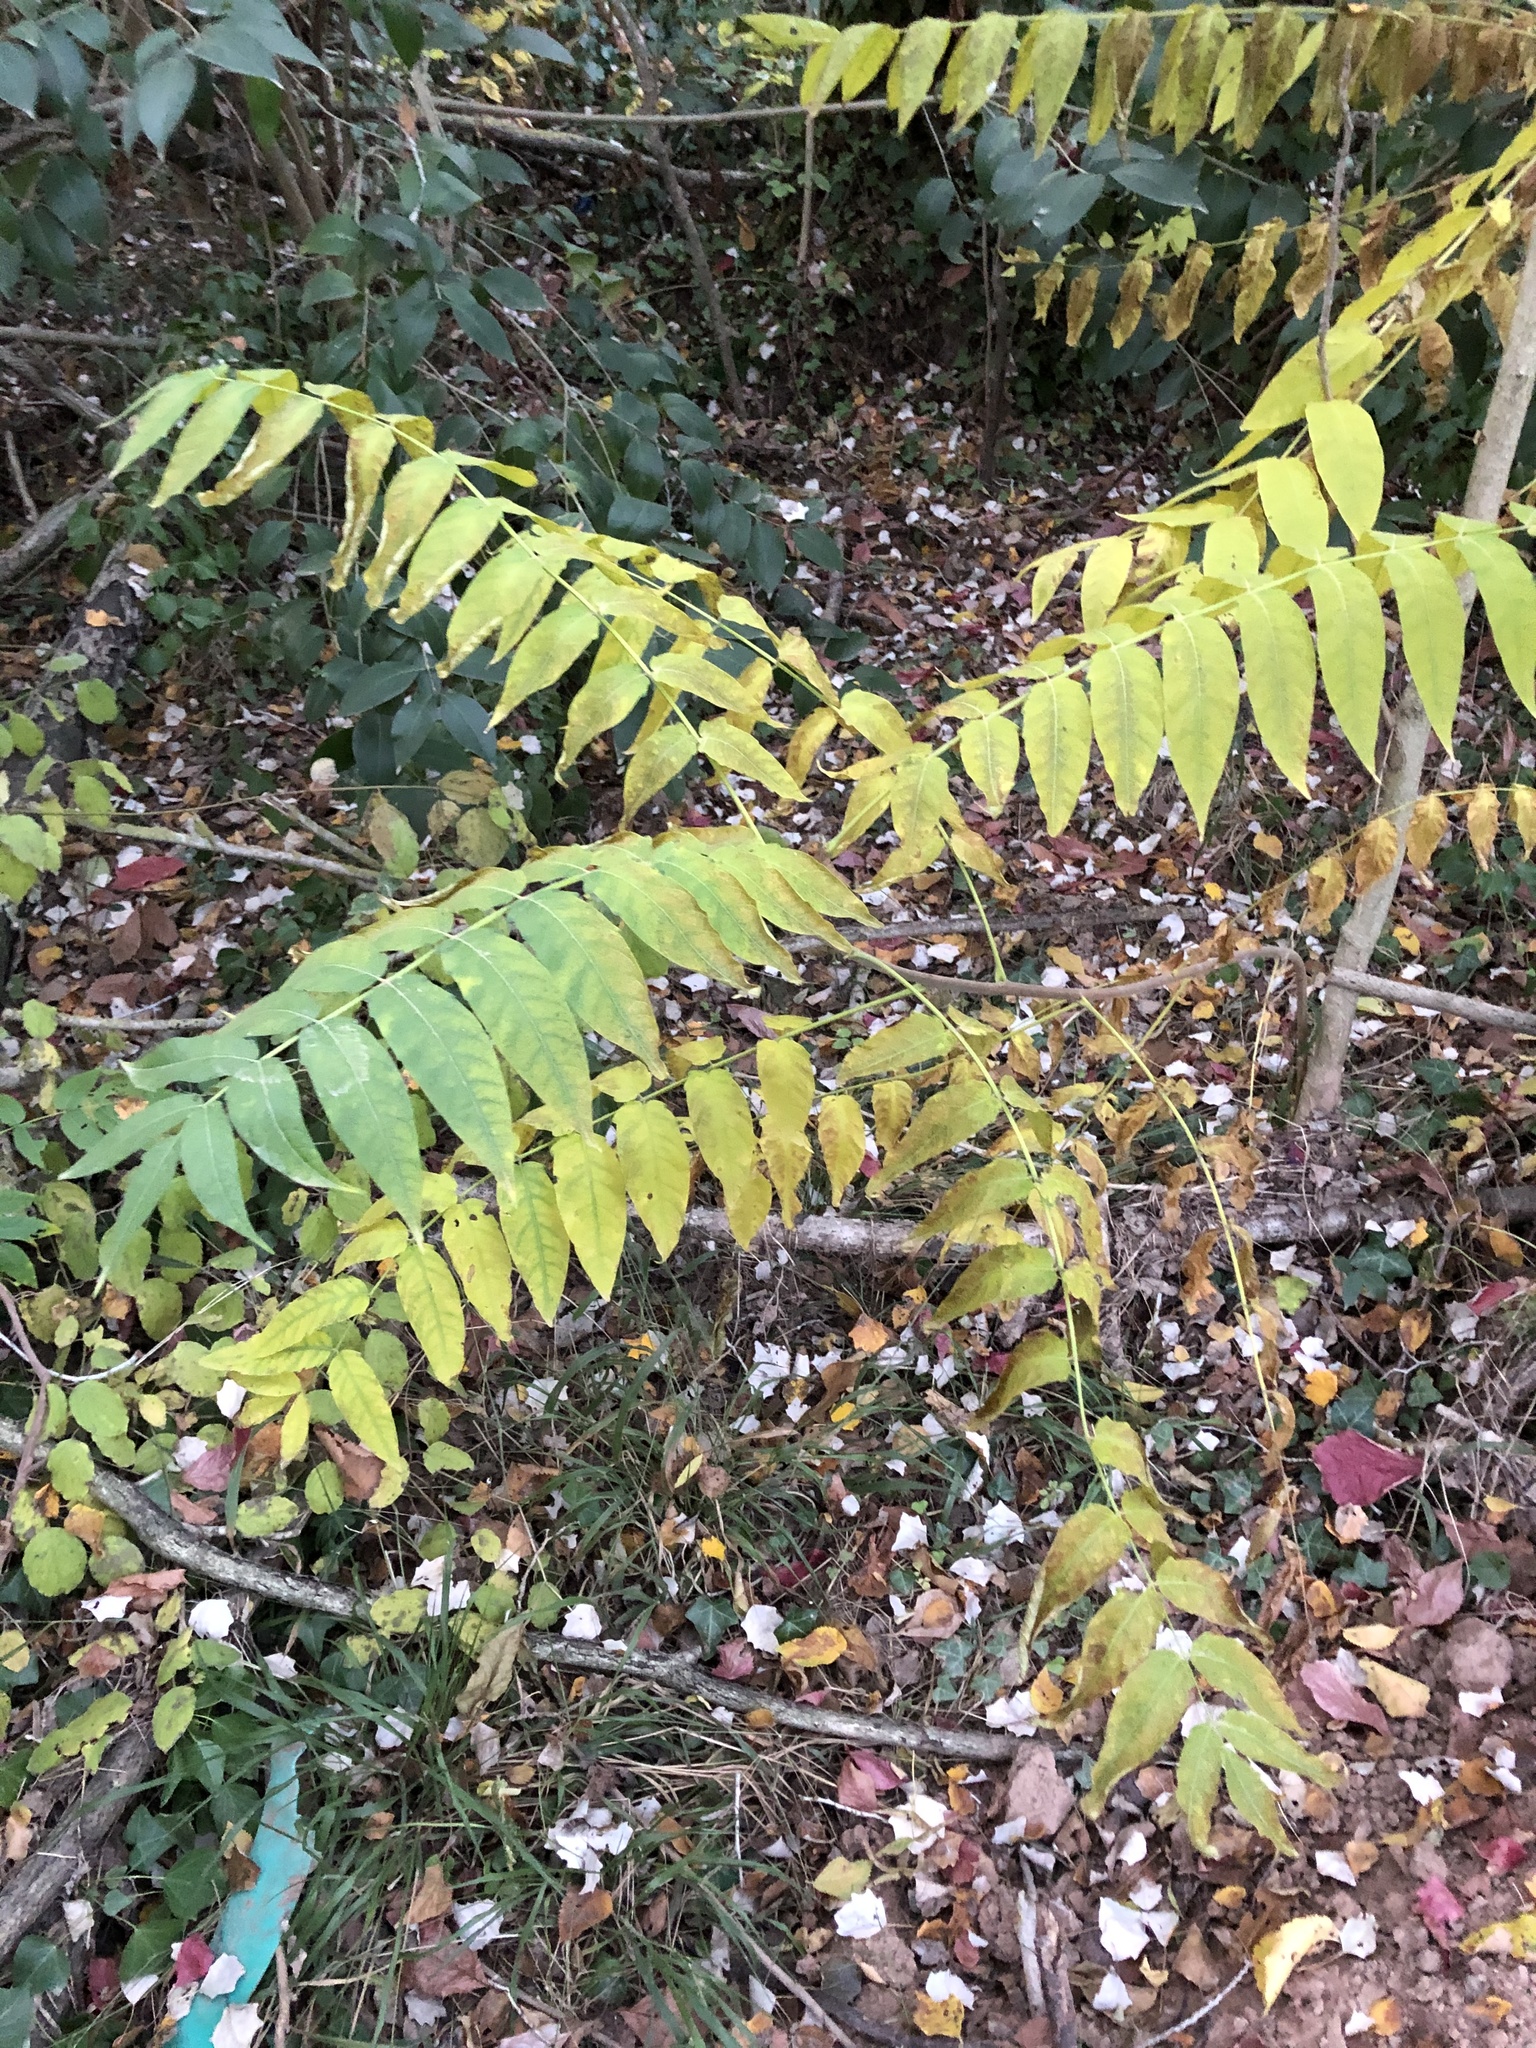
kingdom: Plantae
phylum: Tracheophyta
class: Magnoliopsida
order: Sapindales
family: Simaroubaceae
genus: Ailanthus
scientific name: Ailanthus altissima
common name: Tree-of-heaven
